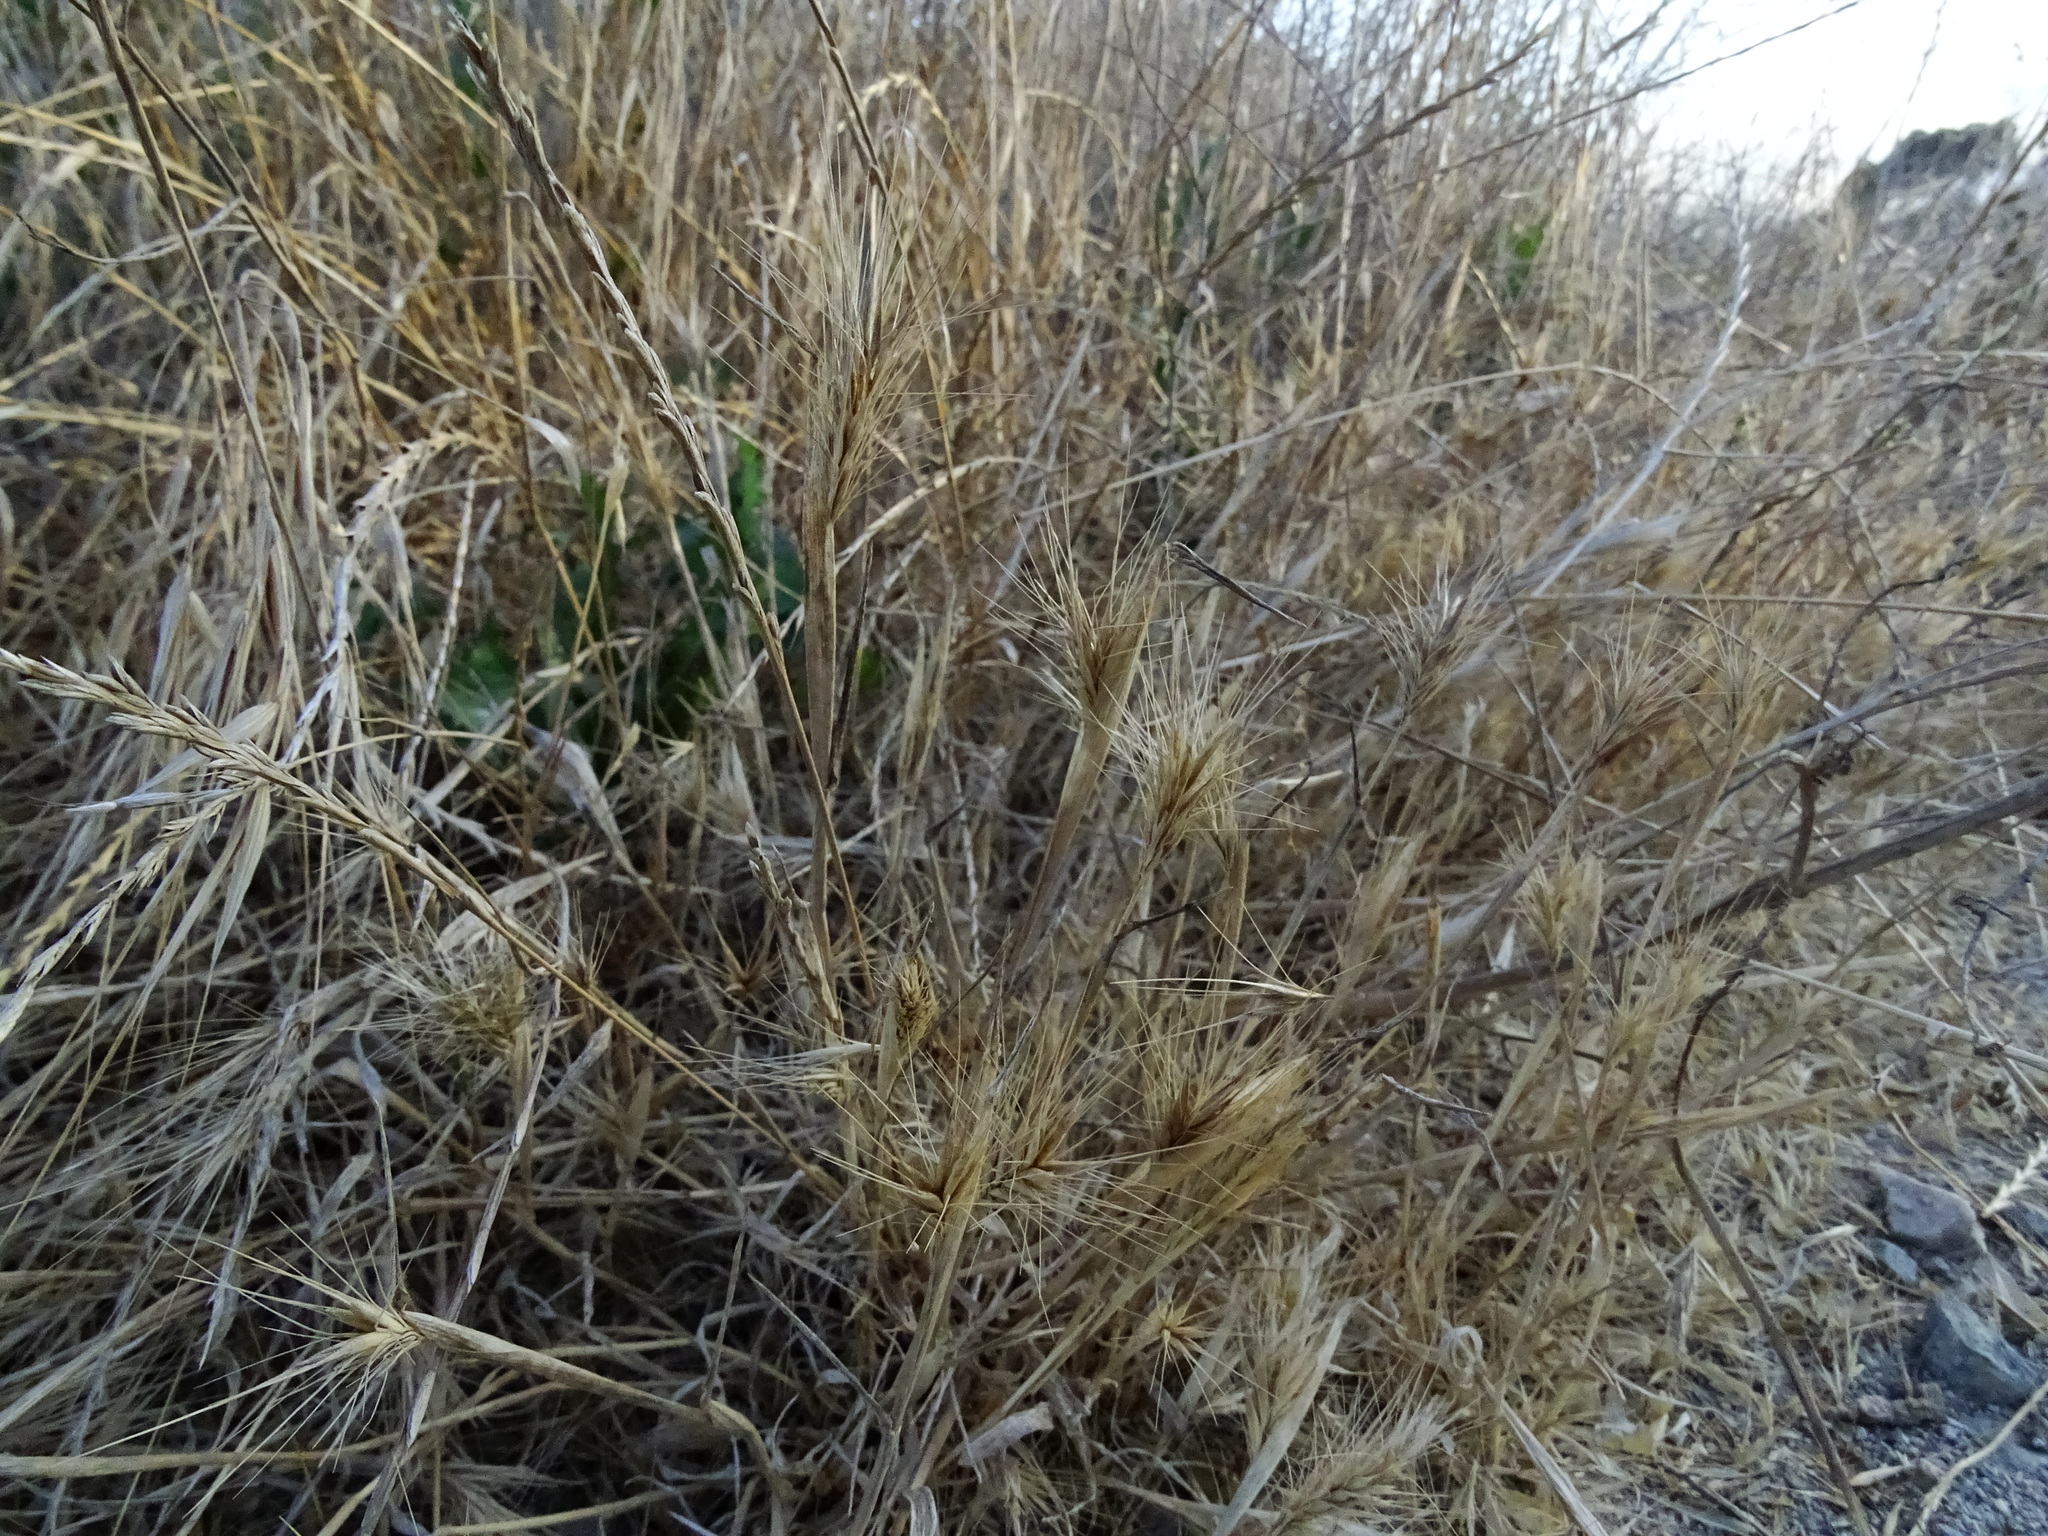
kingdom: Plantae
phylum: Tracheophyta
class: Liliopsida
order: Poales
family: Poaceae
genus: Hordeum
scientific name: Hordeum murinum
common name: Wall barley
